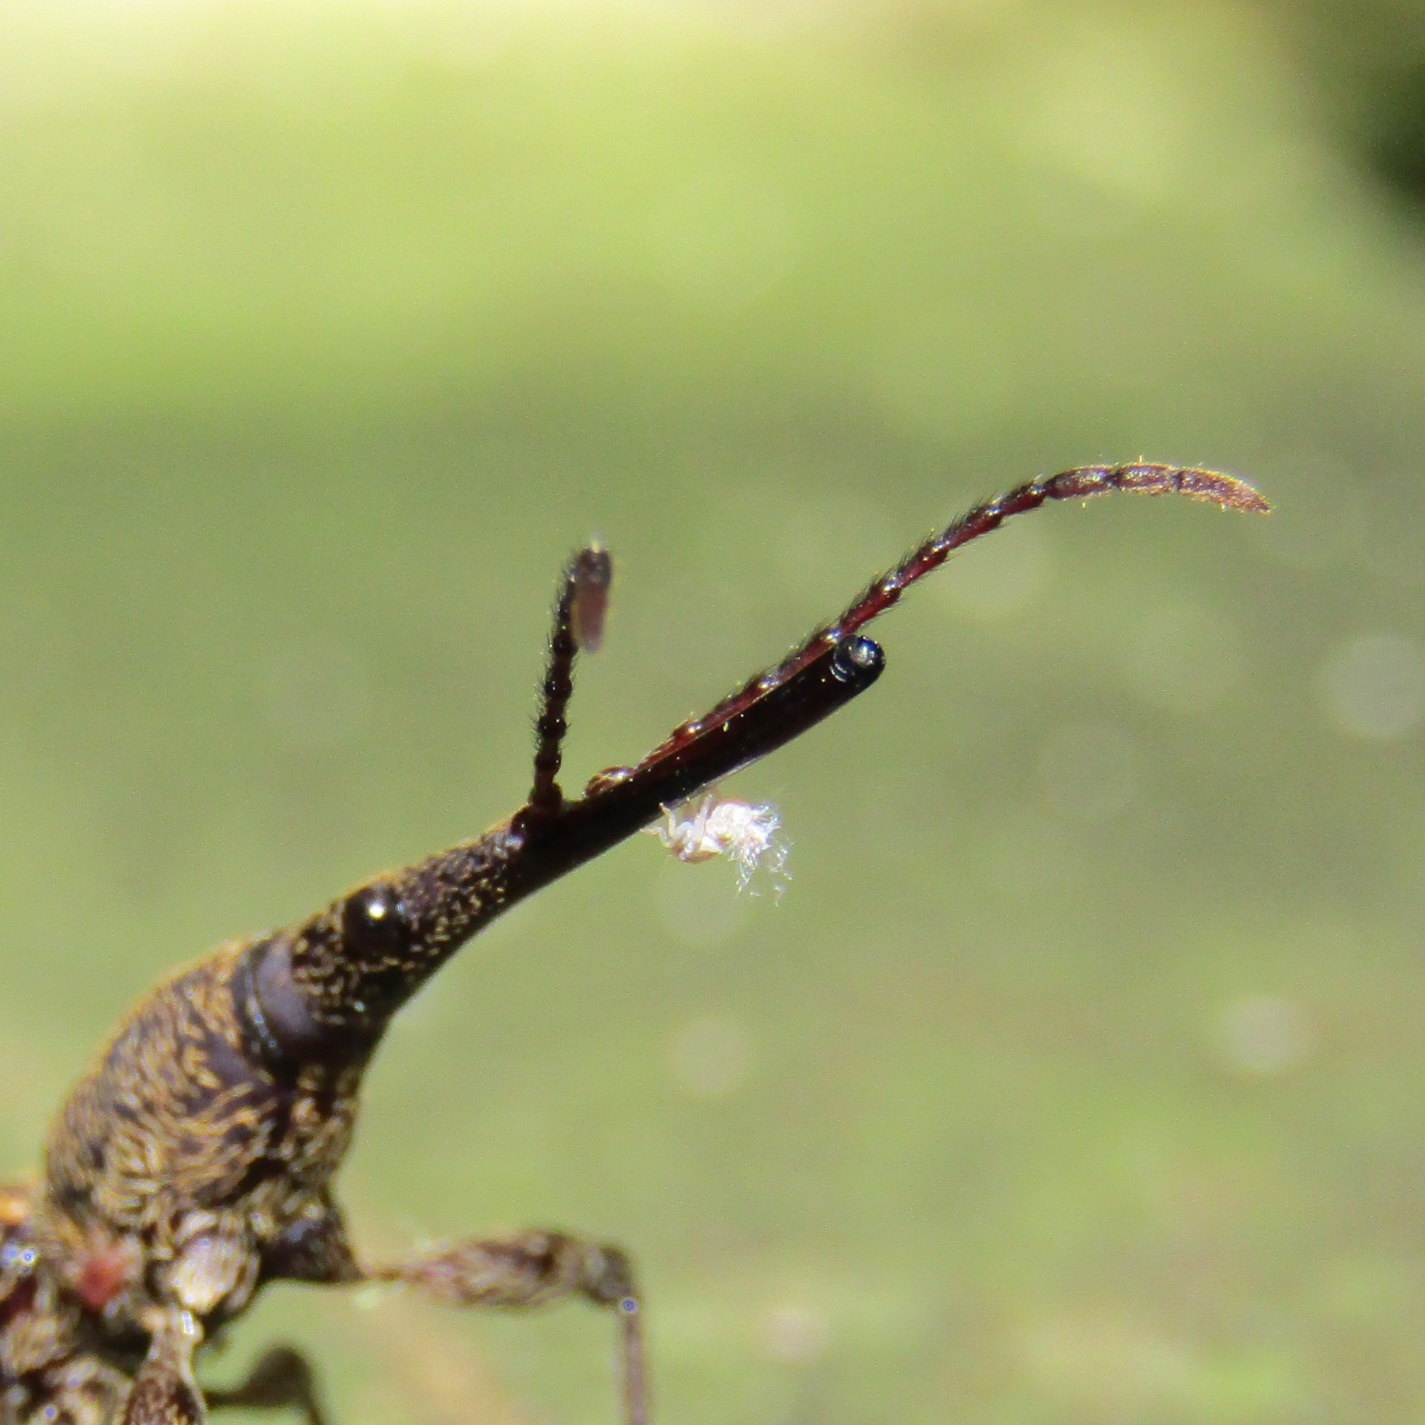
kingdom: Animalia
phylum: Arthropoda
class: Insecta
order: Hemiptera
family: Ricaniidae
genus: Scolypopa
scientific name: Scolypopa australis
